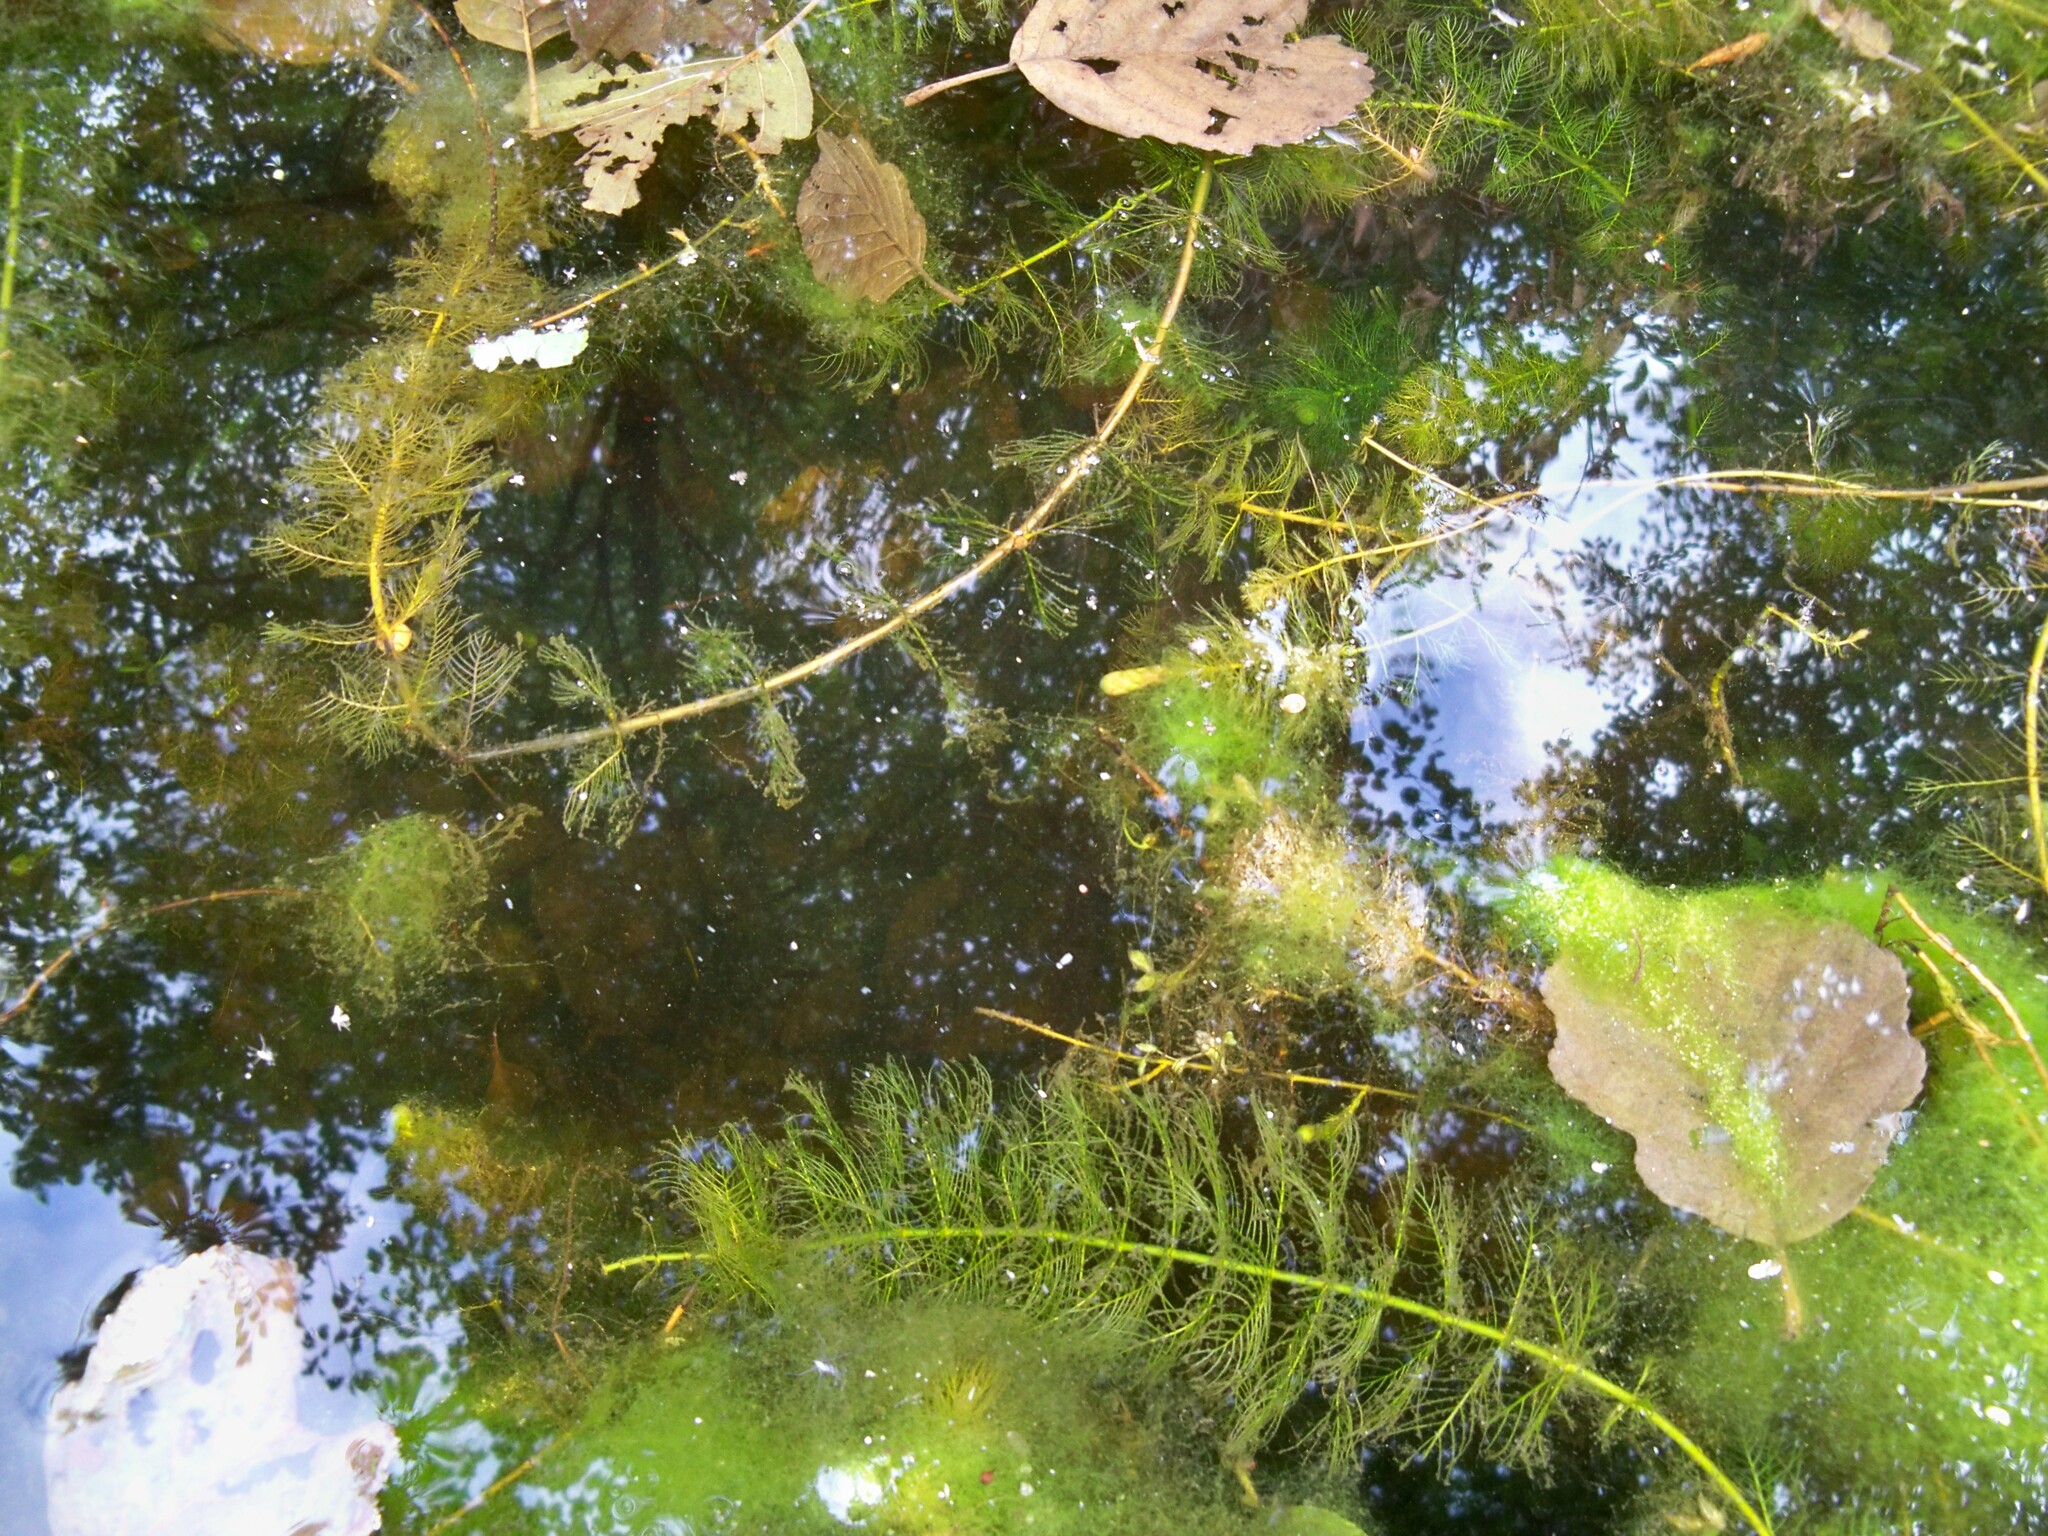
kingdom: Plantae
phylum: Tracheophyta
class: Magnoliopsida
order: Saxifragales
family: Haloragaceae
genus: Myriophyllum
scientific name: Myriophyllum verticillatum
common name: Whorled water-milfoil
